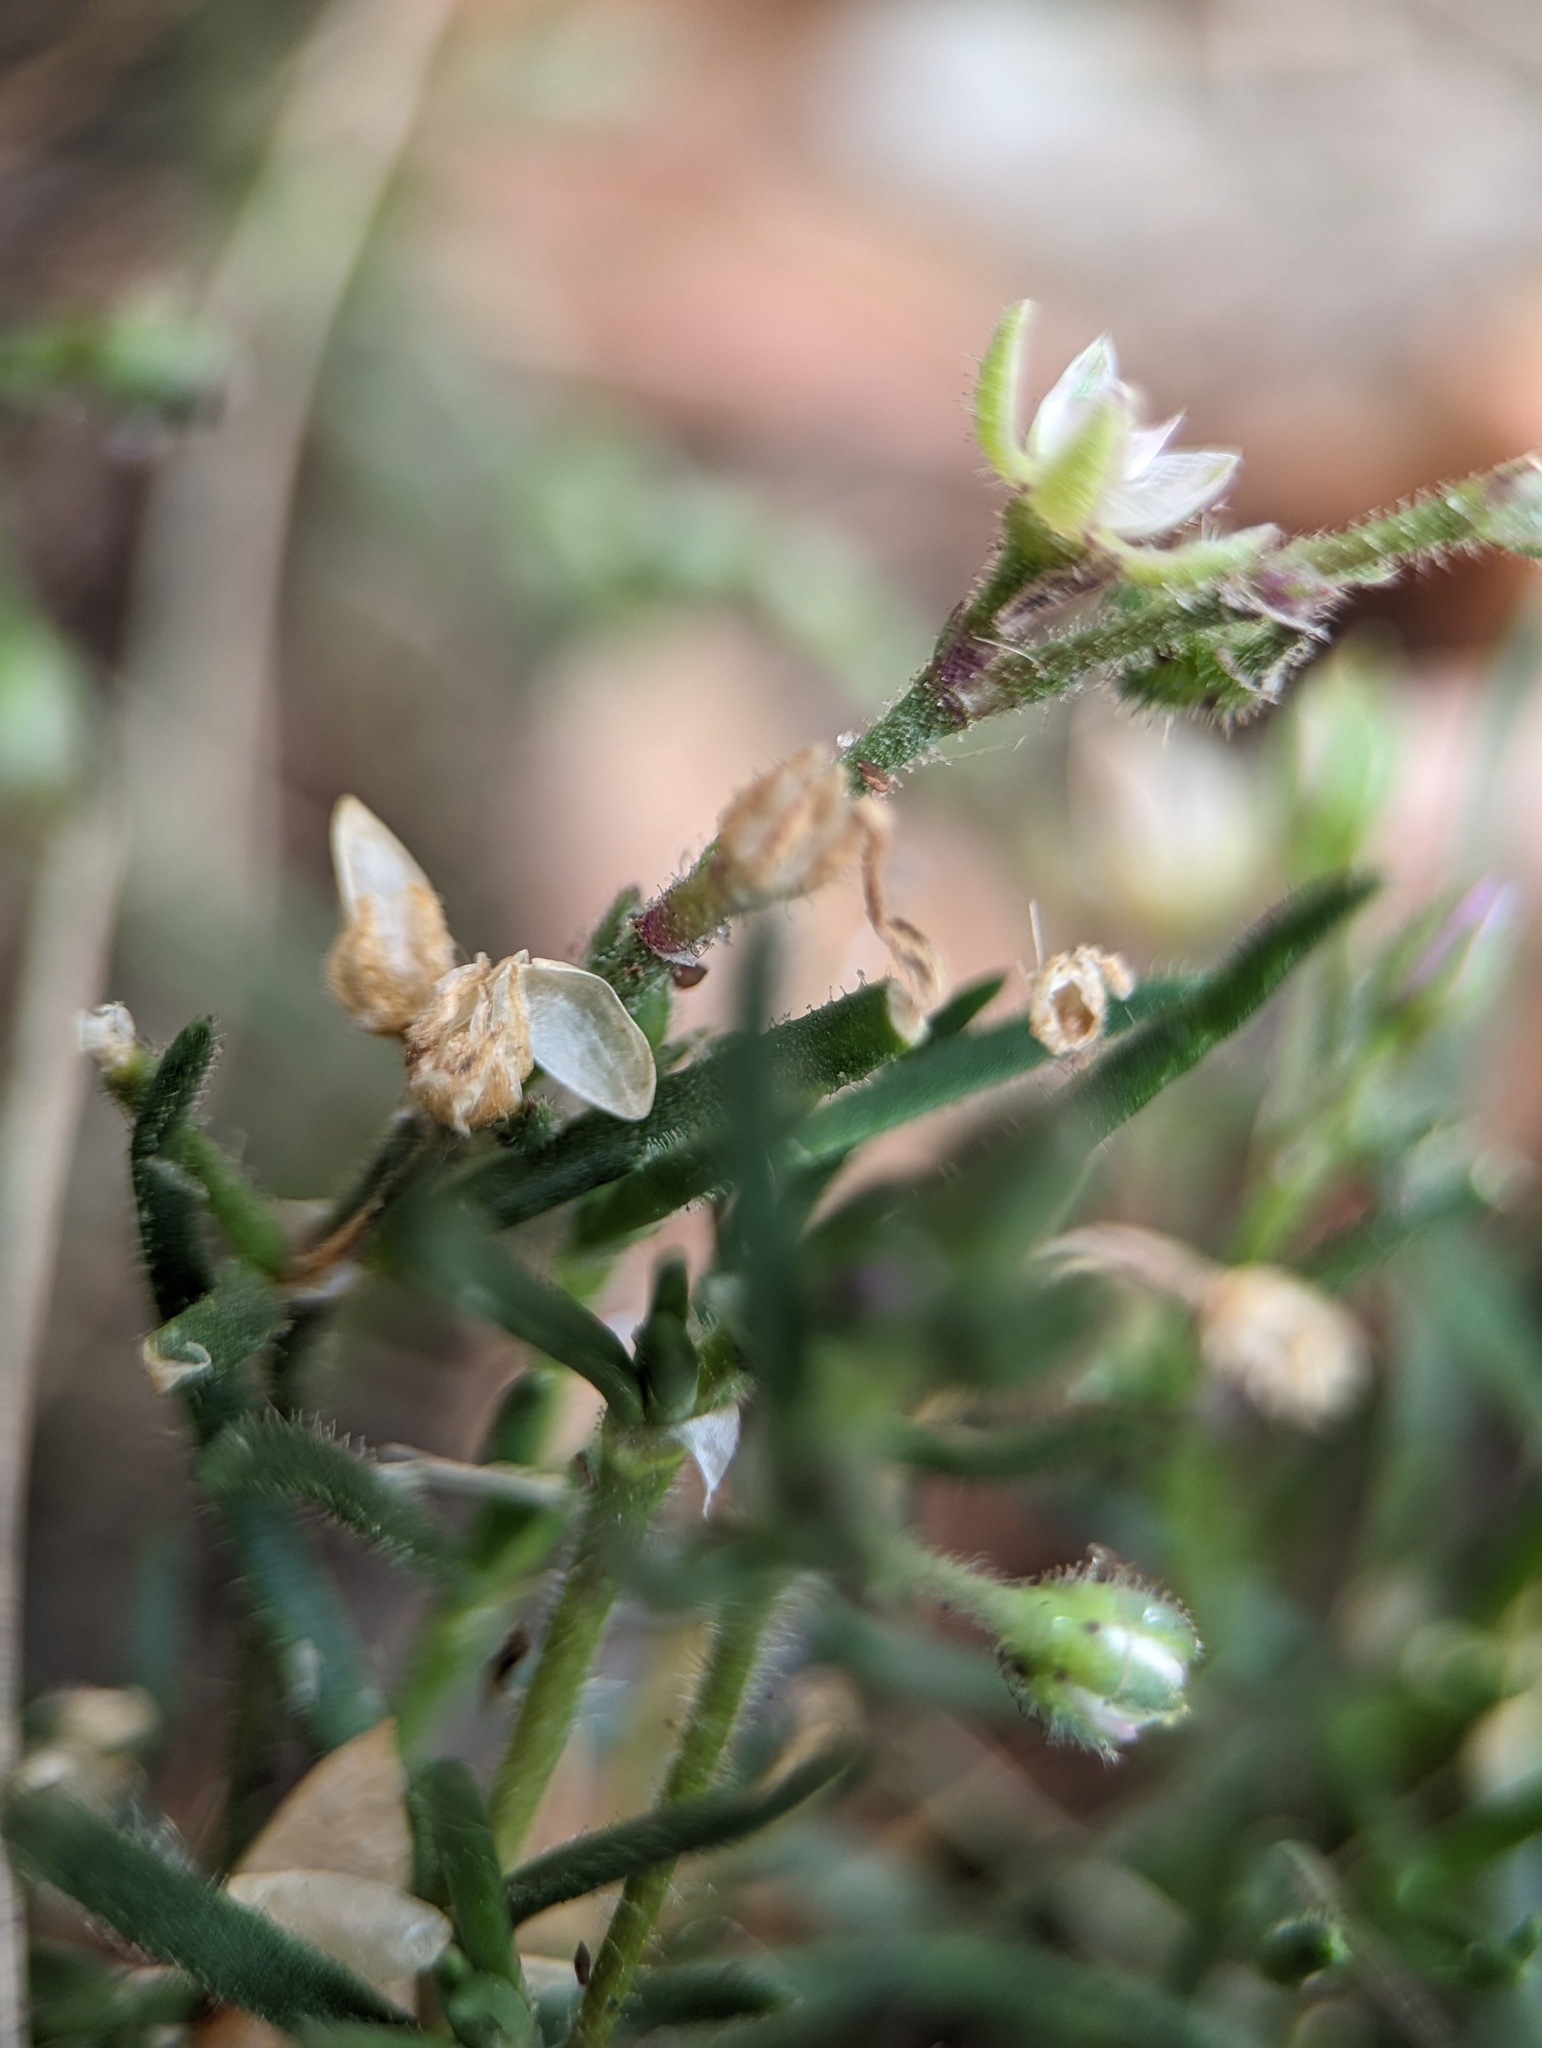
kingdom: Plantae
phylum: Tracheophyta
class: Magnoliopsida
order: Caryophyllales
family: Caryophyllaceae
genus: Spergularia
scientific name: Spergularia marina
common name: Lesser sea-spurrey
